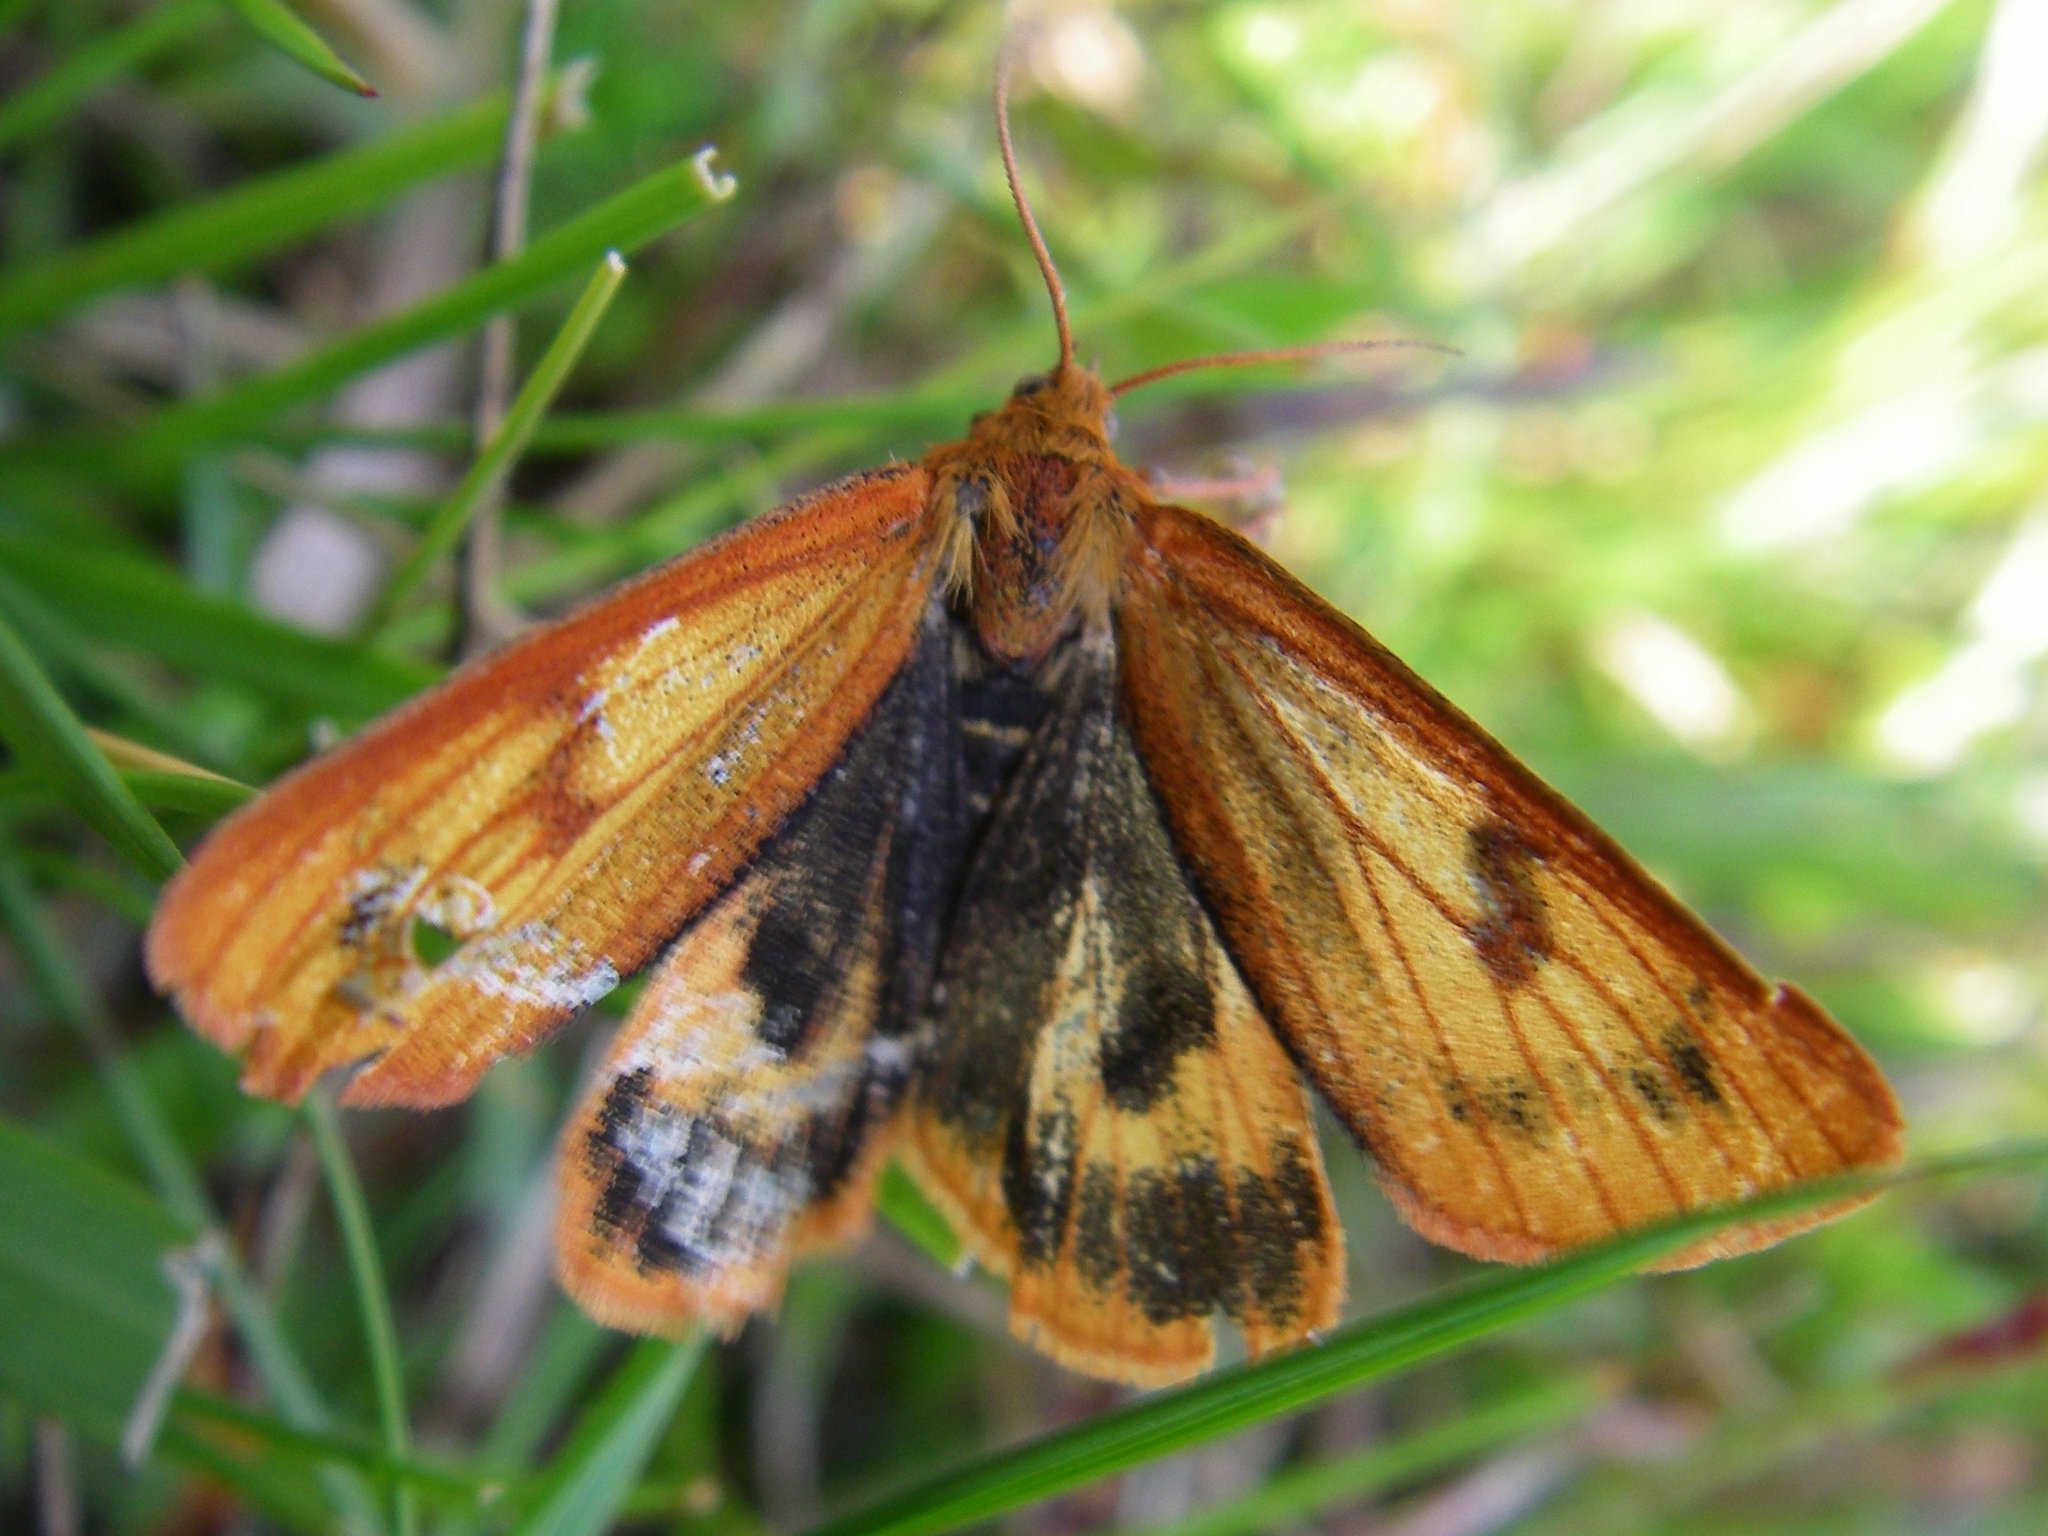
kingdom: Animalia
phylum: Arthropoda
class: Insecta
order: Lepidoptera
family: Erebidae
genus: Diacrisia
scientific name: Diacrisia sannio
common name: Clouded buff
